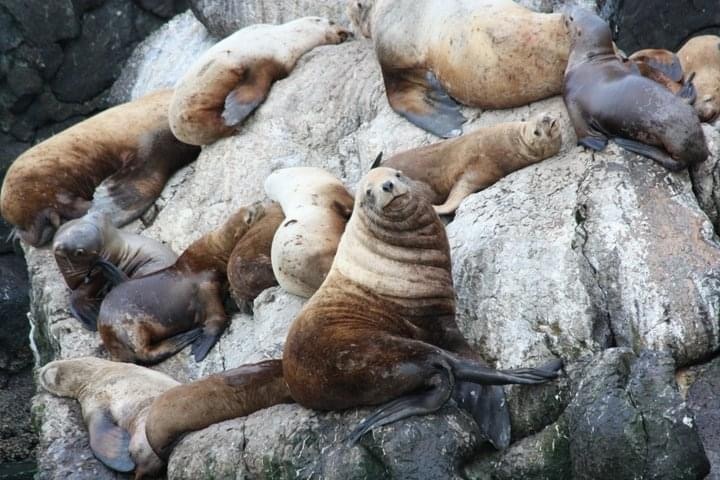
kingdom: Animalia
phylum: Chordata
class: Mammalia
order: Carnivora
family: Otariidae
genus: Eumetopias
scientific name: Eumetopias jubatus
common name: Steller sea lion
